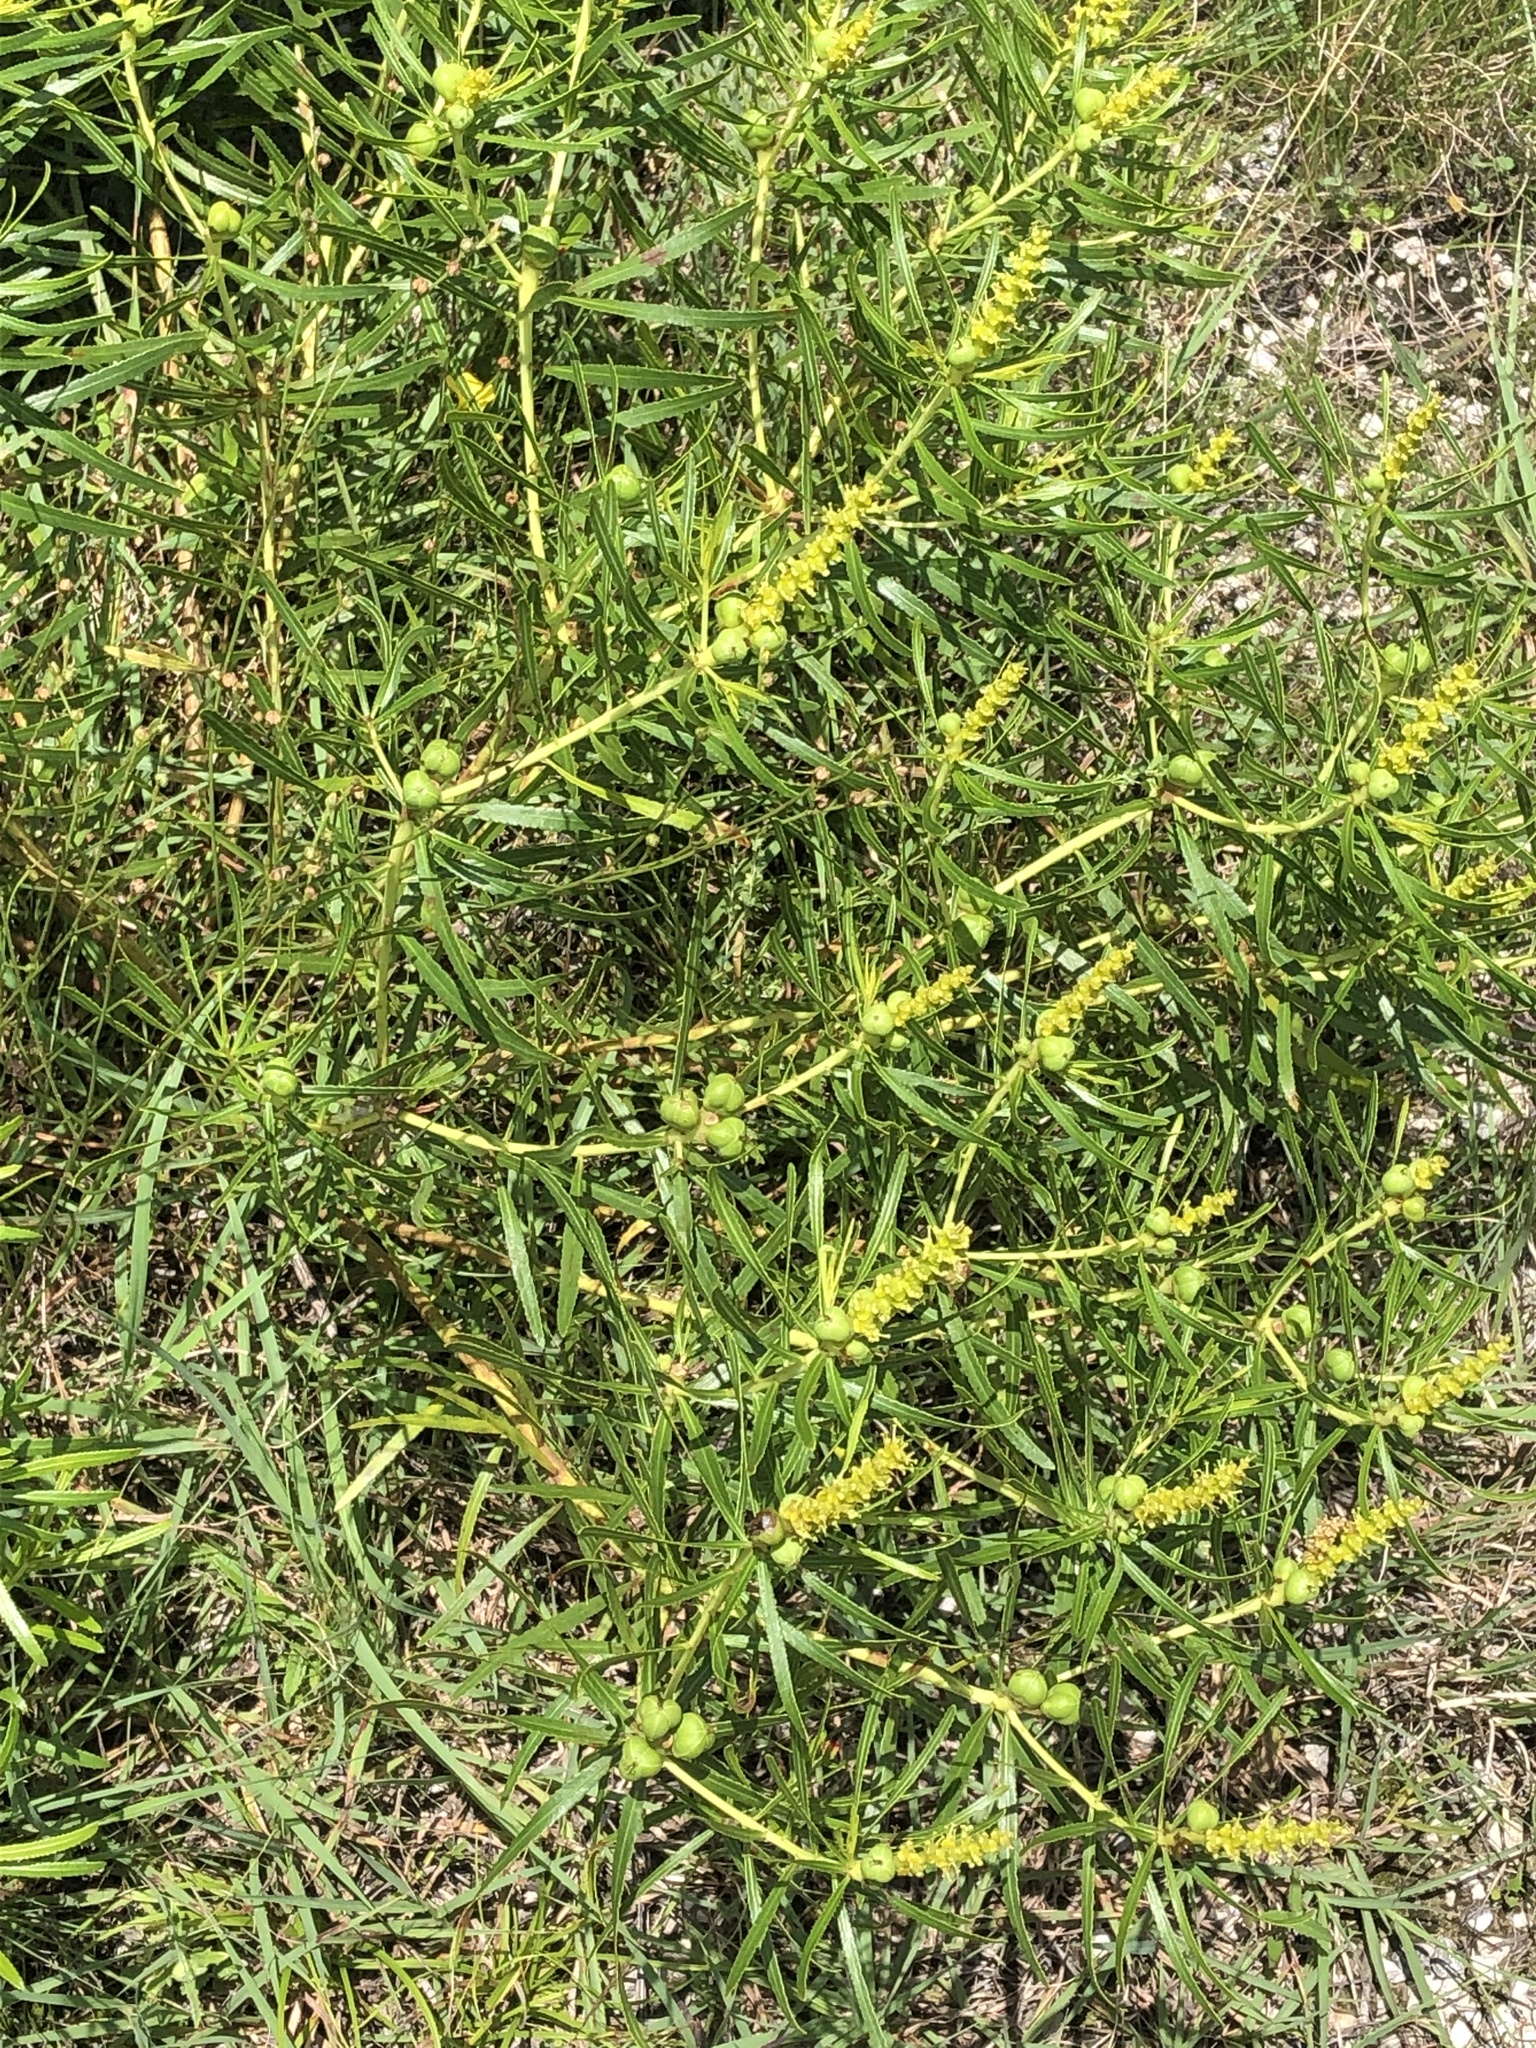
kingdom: Plantae
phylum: Tracheophyta
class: Magnoliopsida
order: Malpighiales
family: Euphorbiaceae
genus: Stillingia
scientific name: Stillingia texana
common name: Texas stillingia
